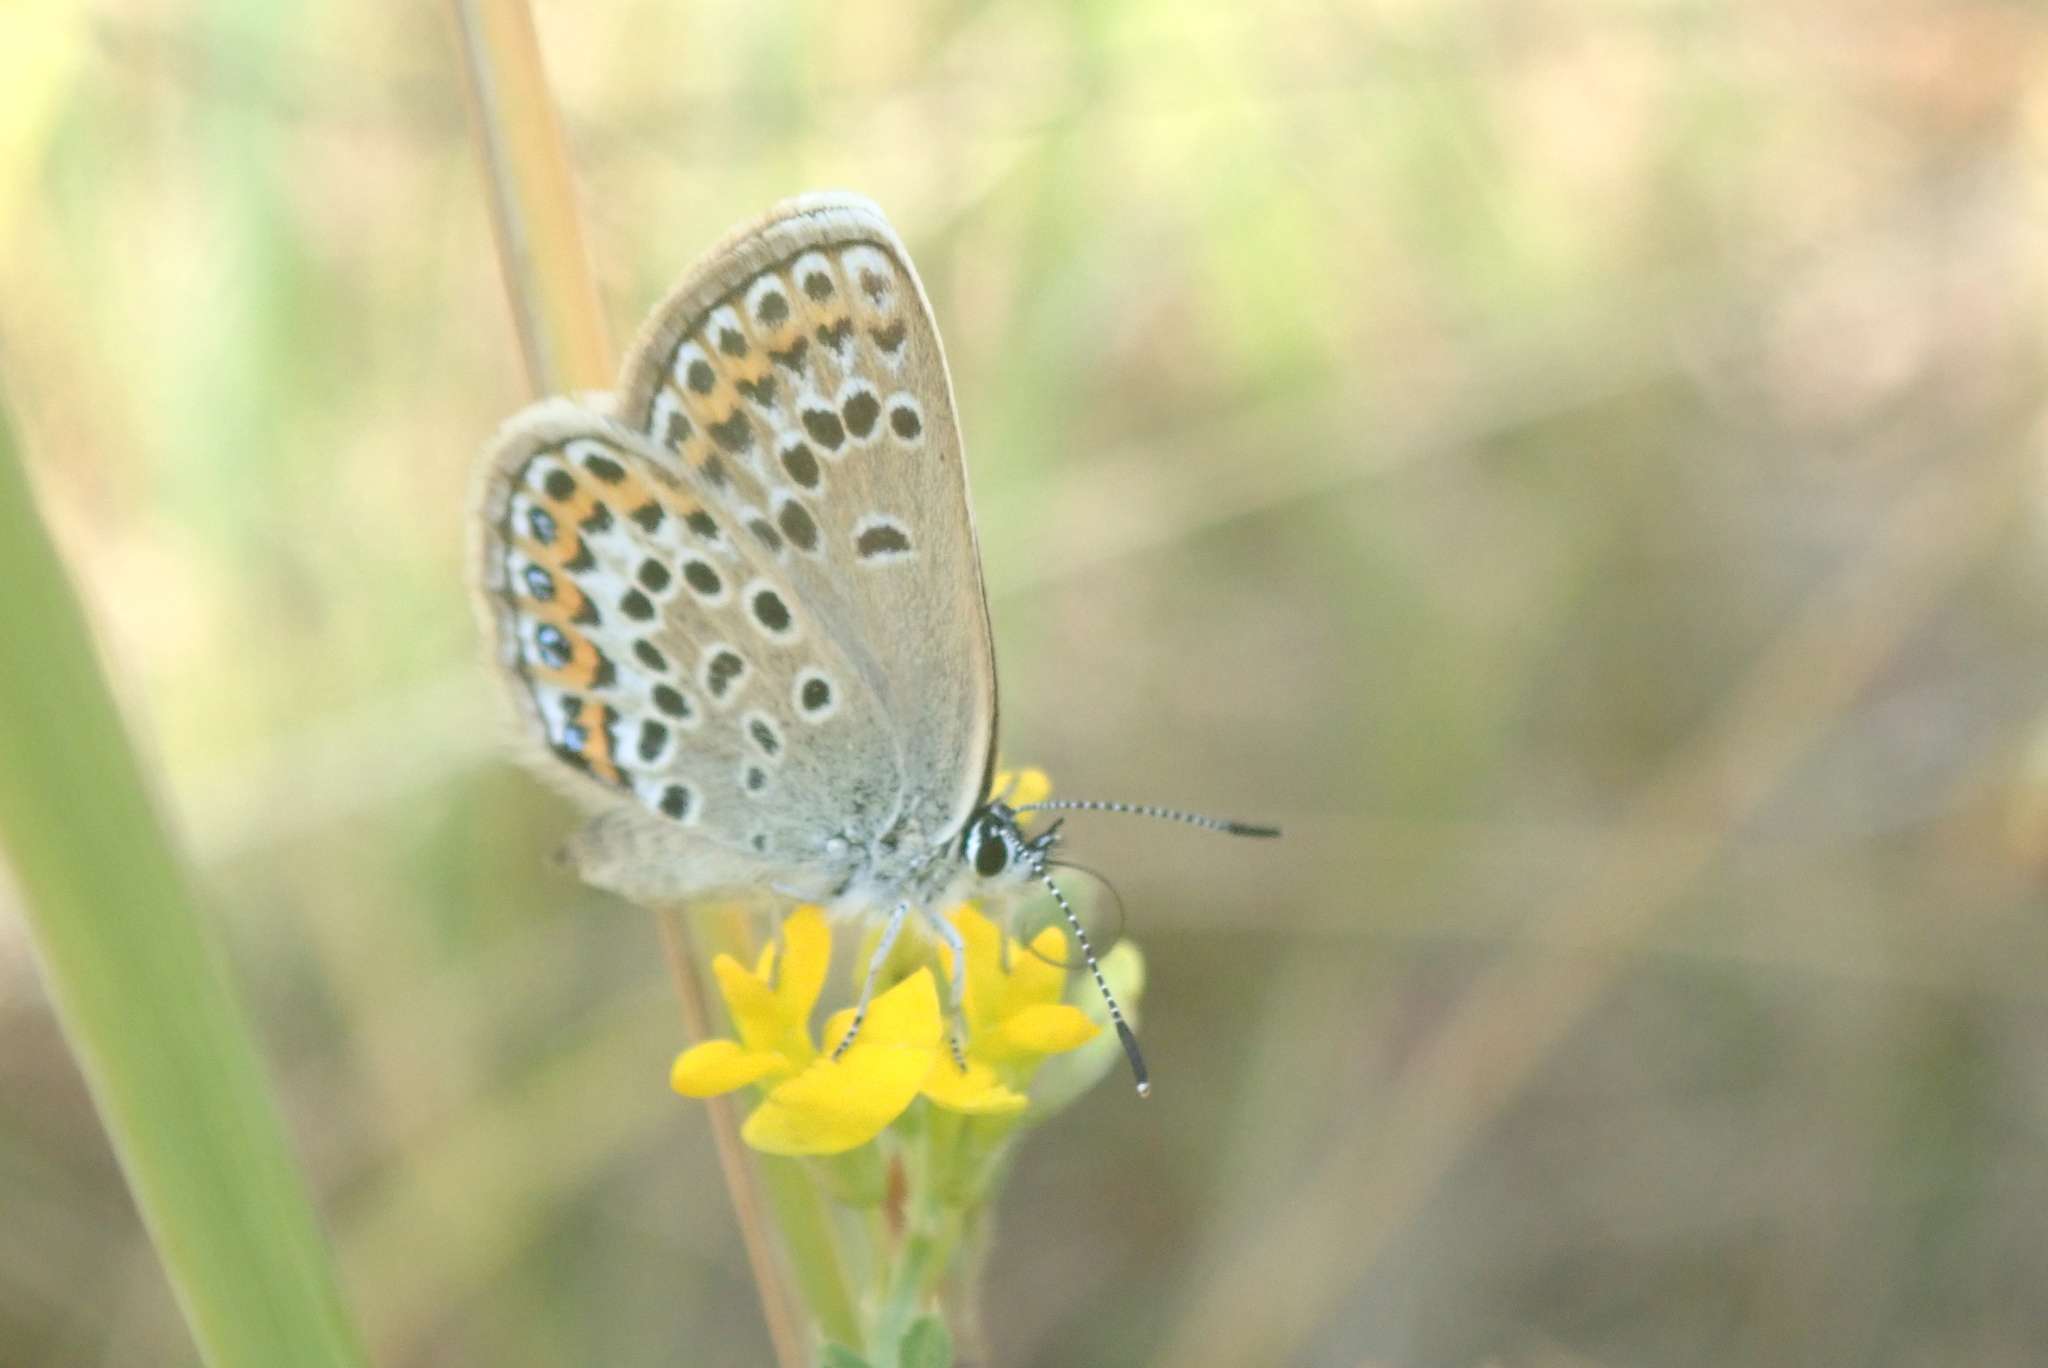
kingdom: Animalia
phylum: Arthropoda
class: Insecta
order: Lepidoptera
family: Lycaenidae
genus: Plebejus
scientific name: Plebejus argus
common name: Silver-studded blue
